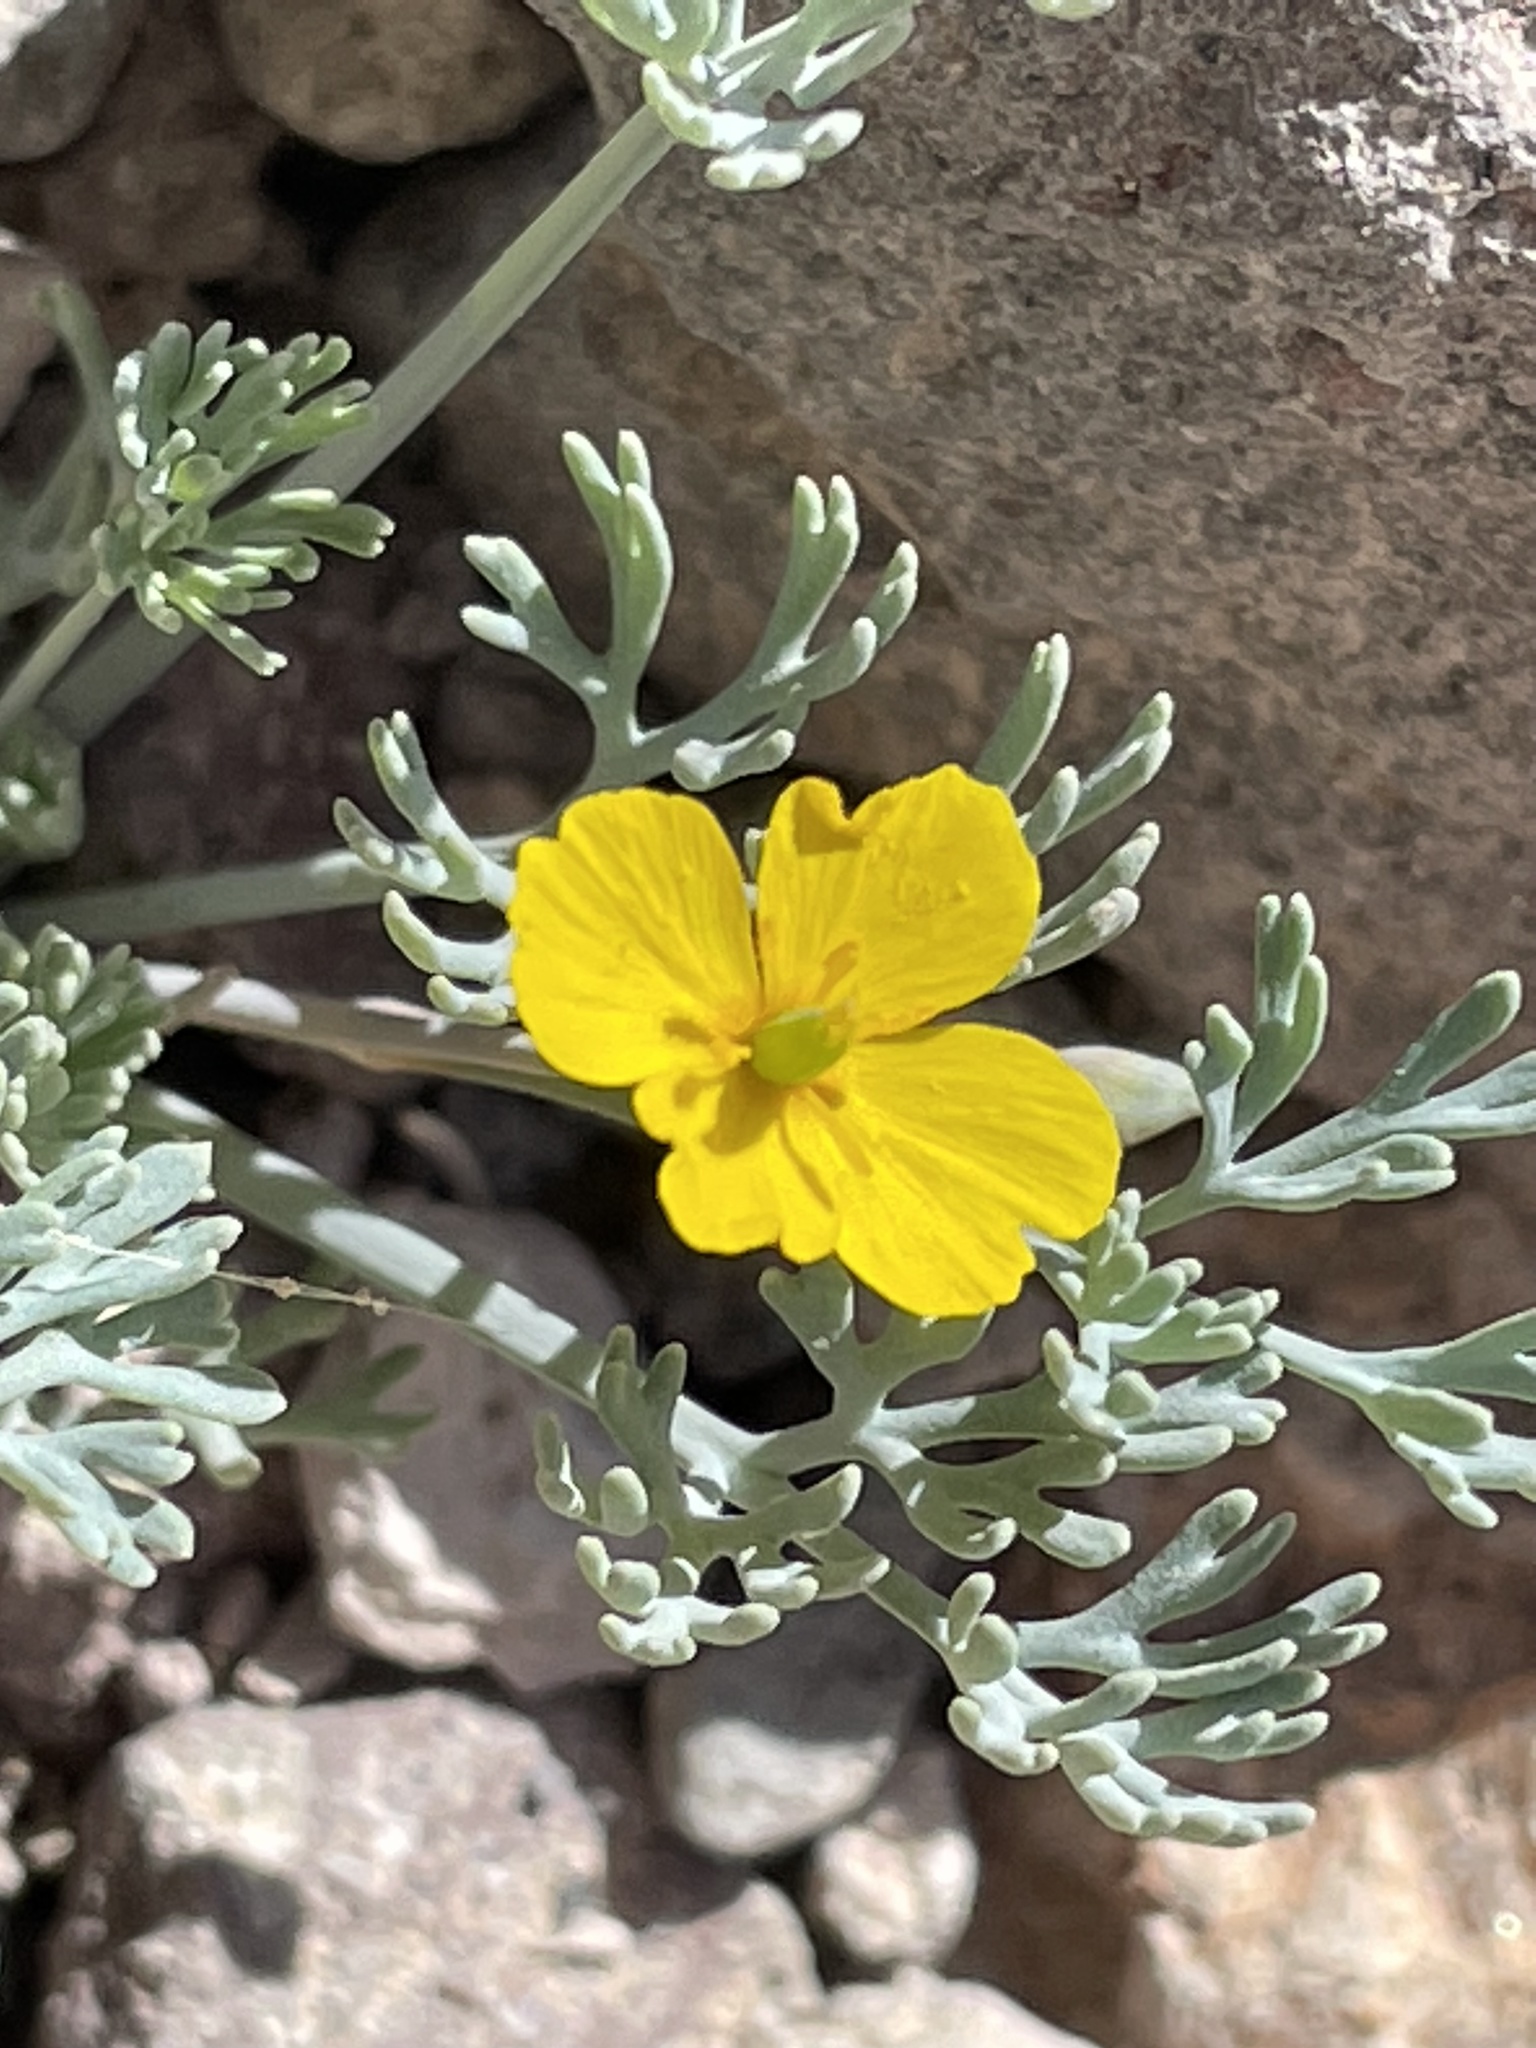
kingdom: Plantae
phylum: Tracheophyta
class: Magnoliopsida
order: Ranunculales
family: Papaveraceae
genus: Eschscholzia
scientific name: Eschscholzia minutiflora
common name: Small-flower california-poppy
